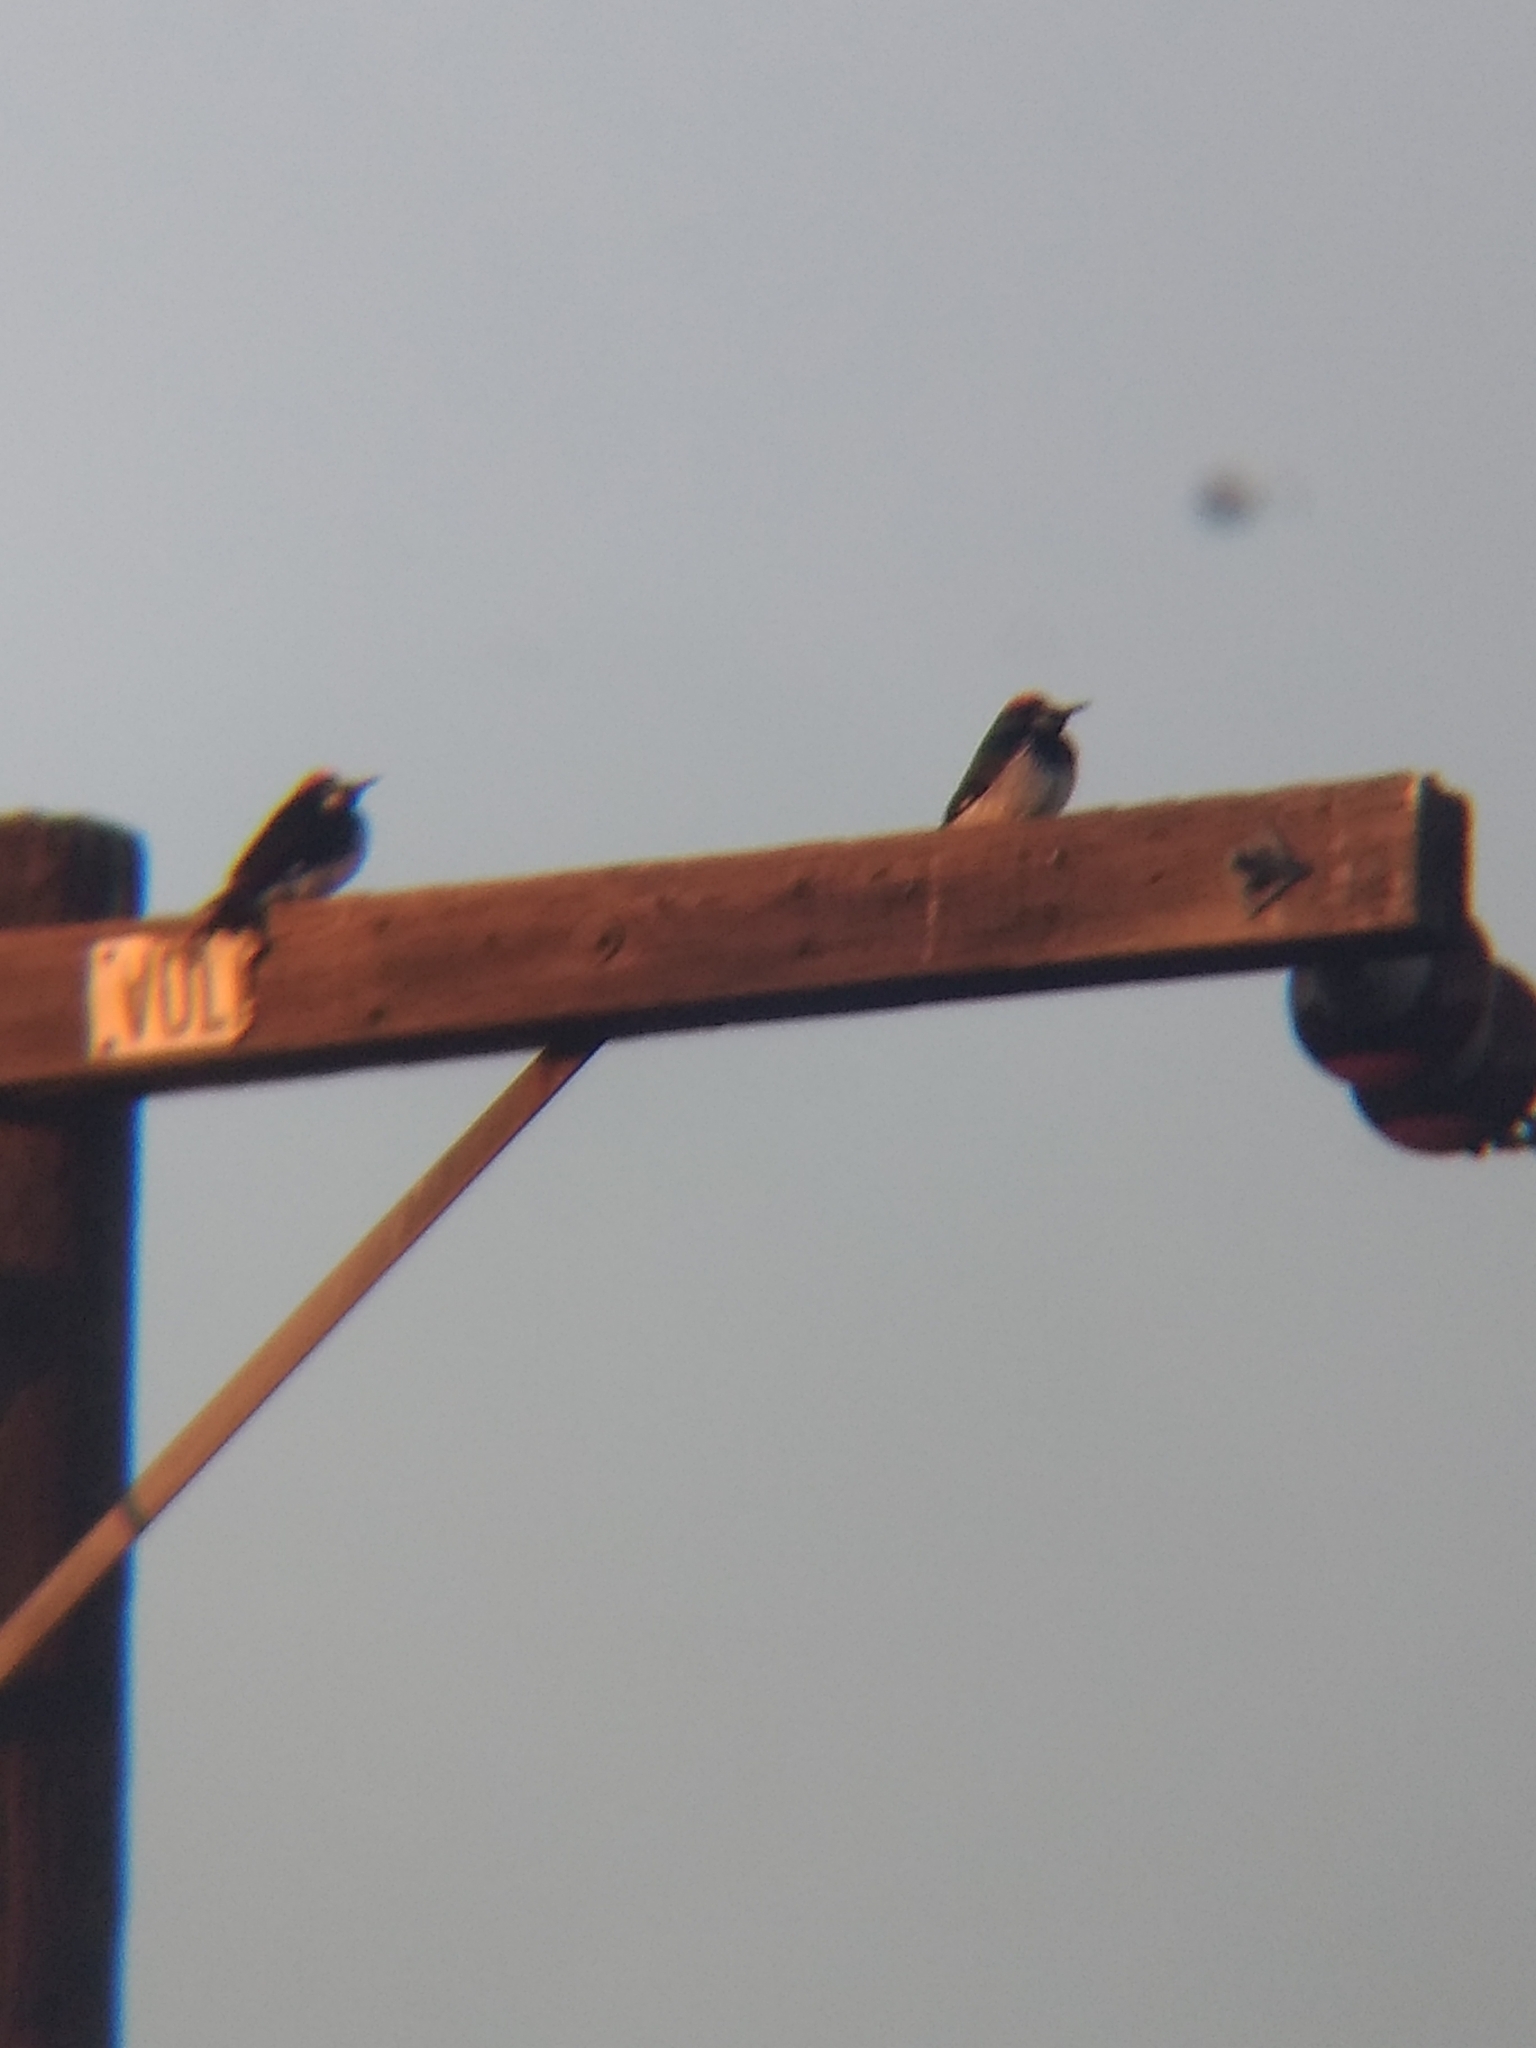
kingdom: Animalia
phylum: Chordata
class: Aves
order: Piciformes
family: Picidae
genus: Melanerpes
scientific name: Melanerpes formicivorus
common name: Acorn woodpecker
